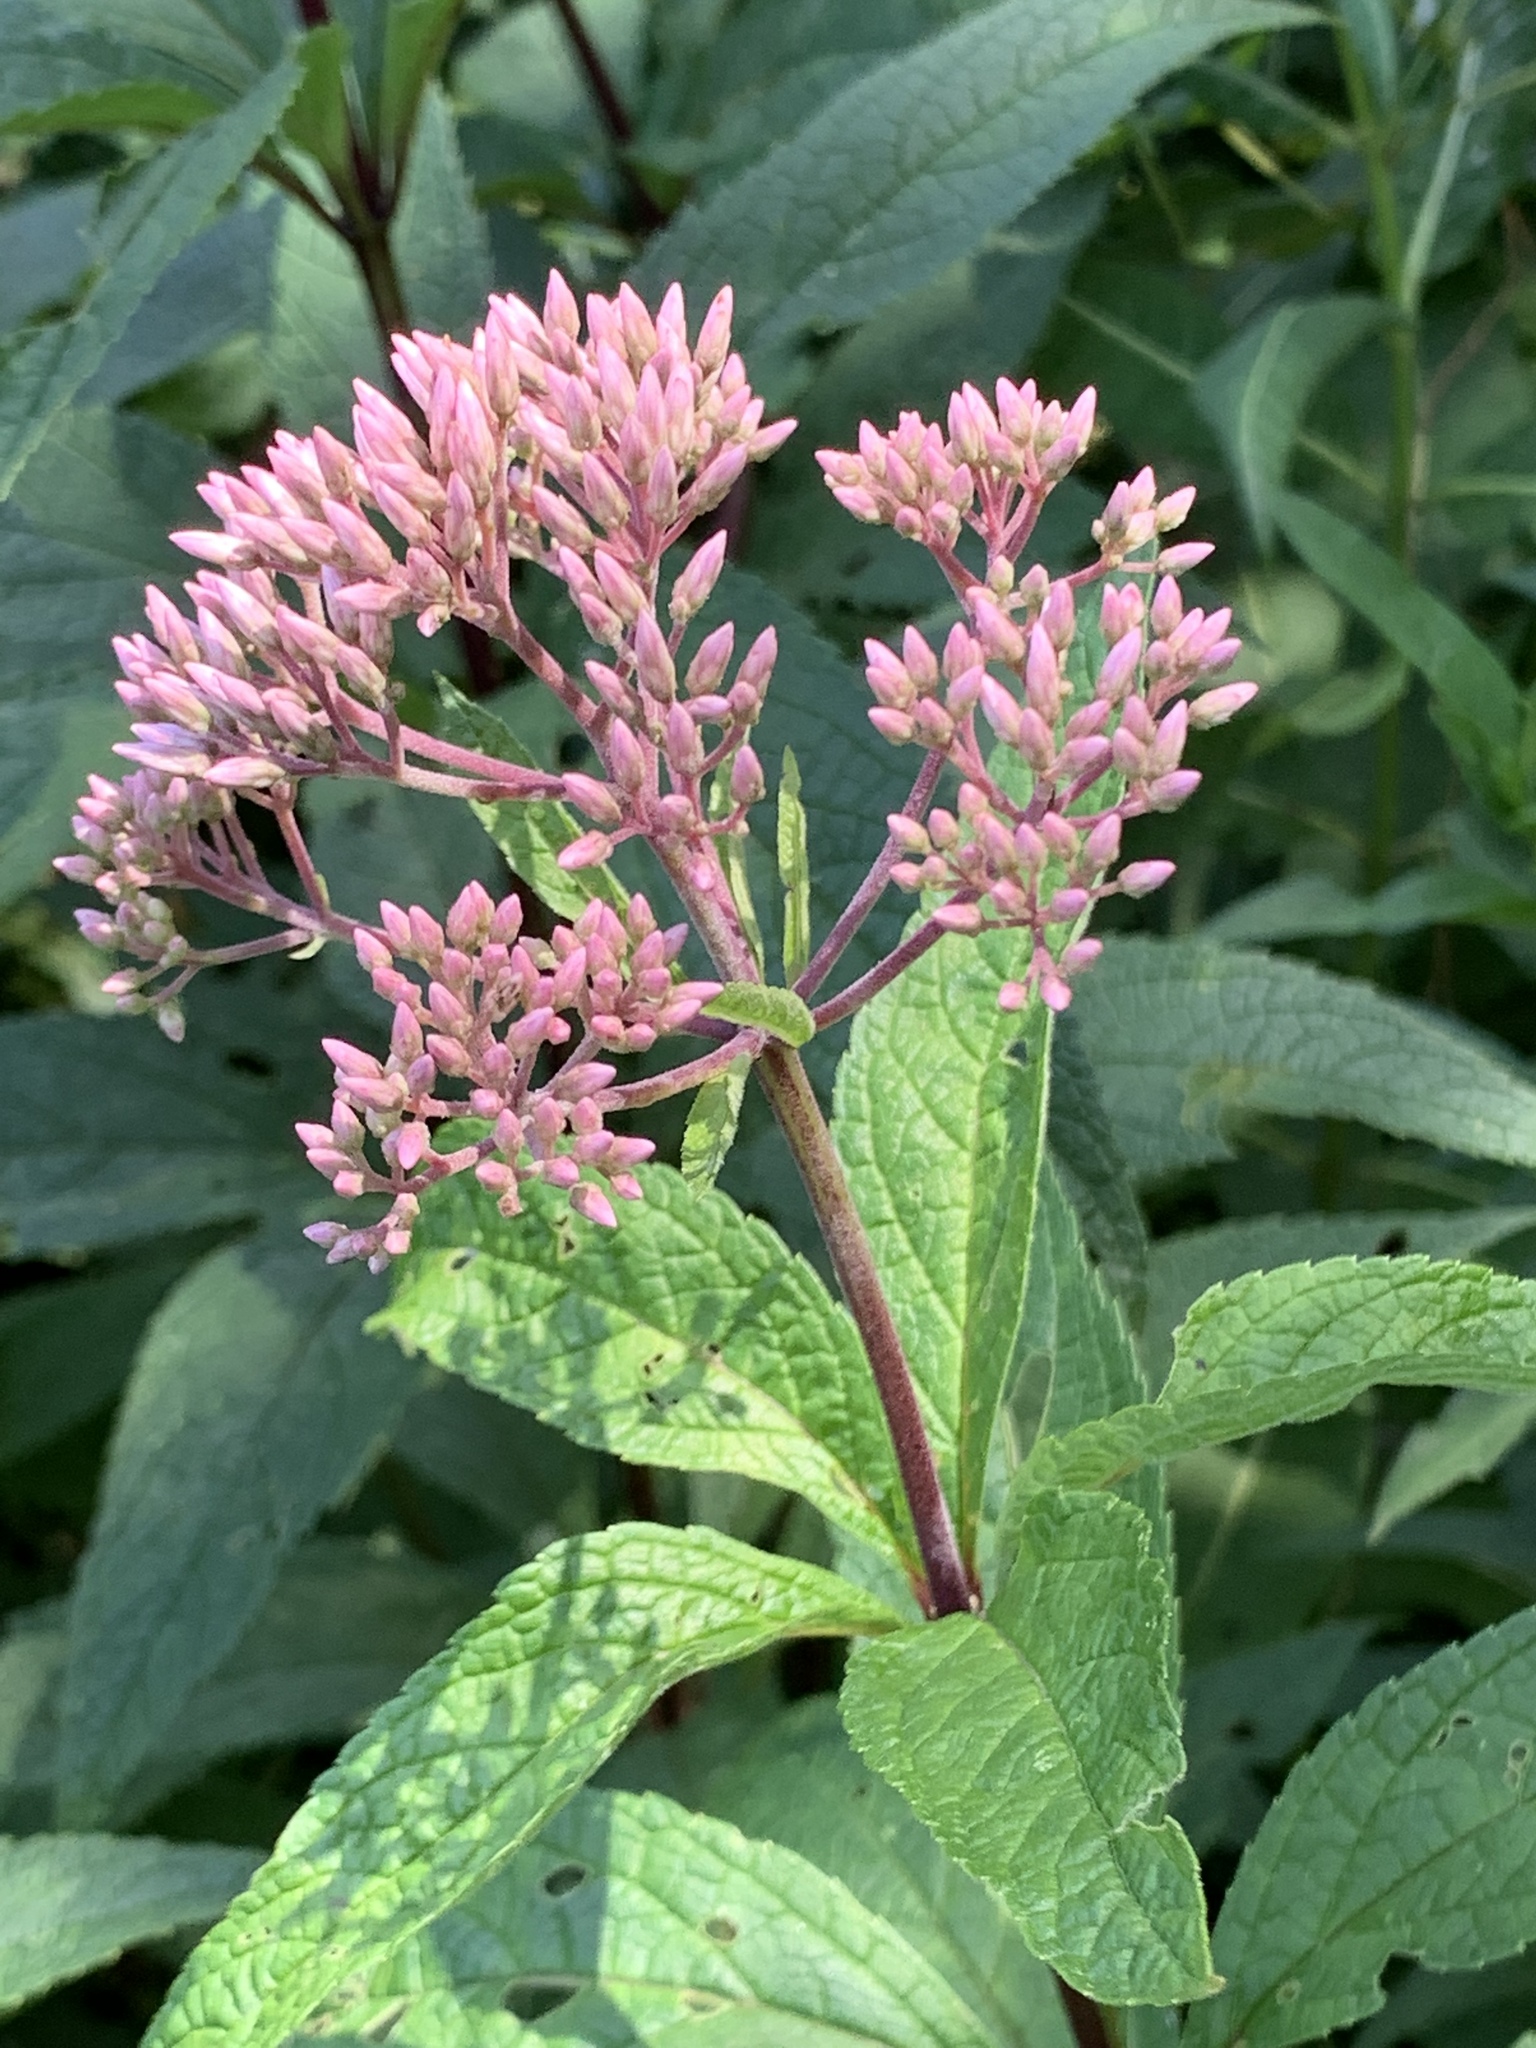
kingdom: Plantae
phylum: Tracheophyta
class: Magnoliopsida
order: Asterales
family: Asteraceae
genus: Eutrochium
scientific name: Eutrochium maculatum
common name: Spotted joe pye weed
